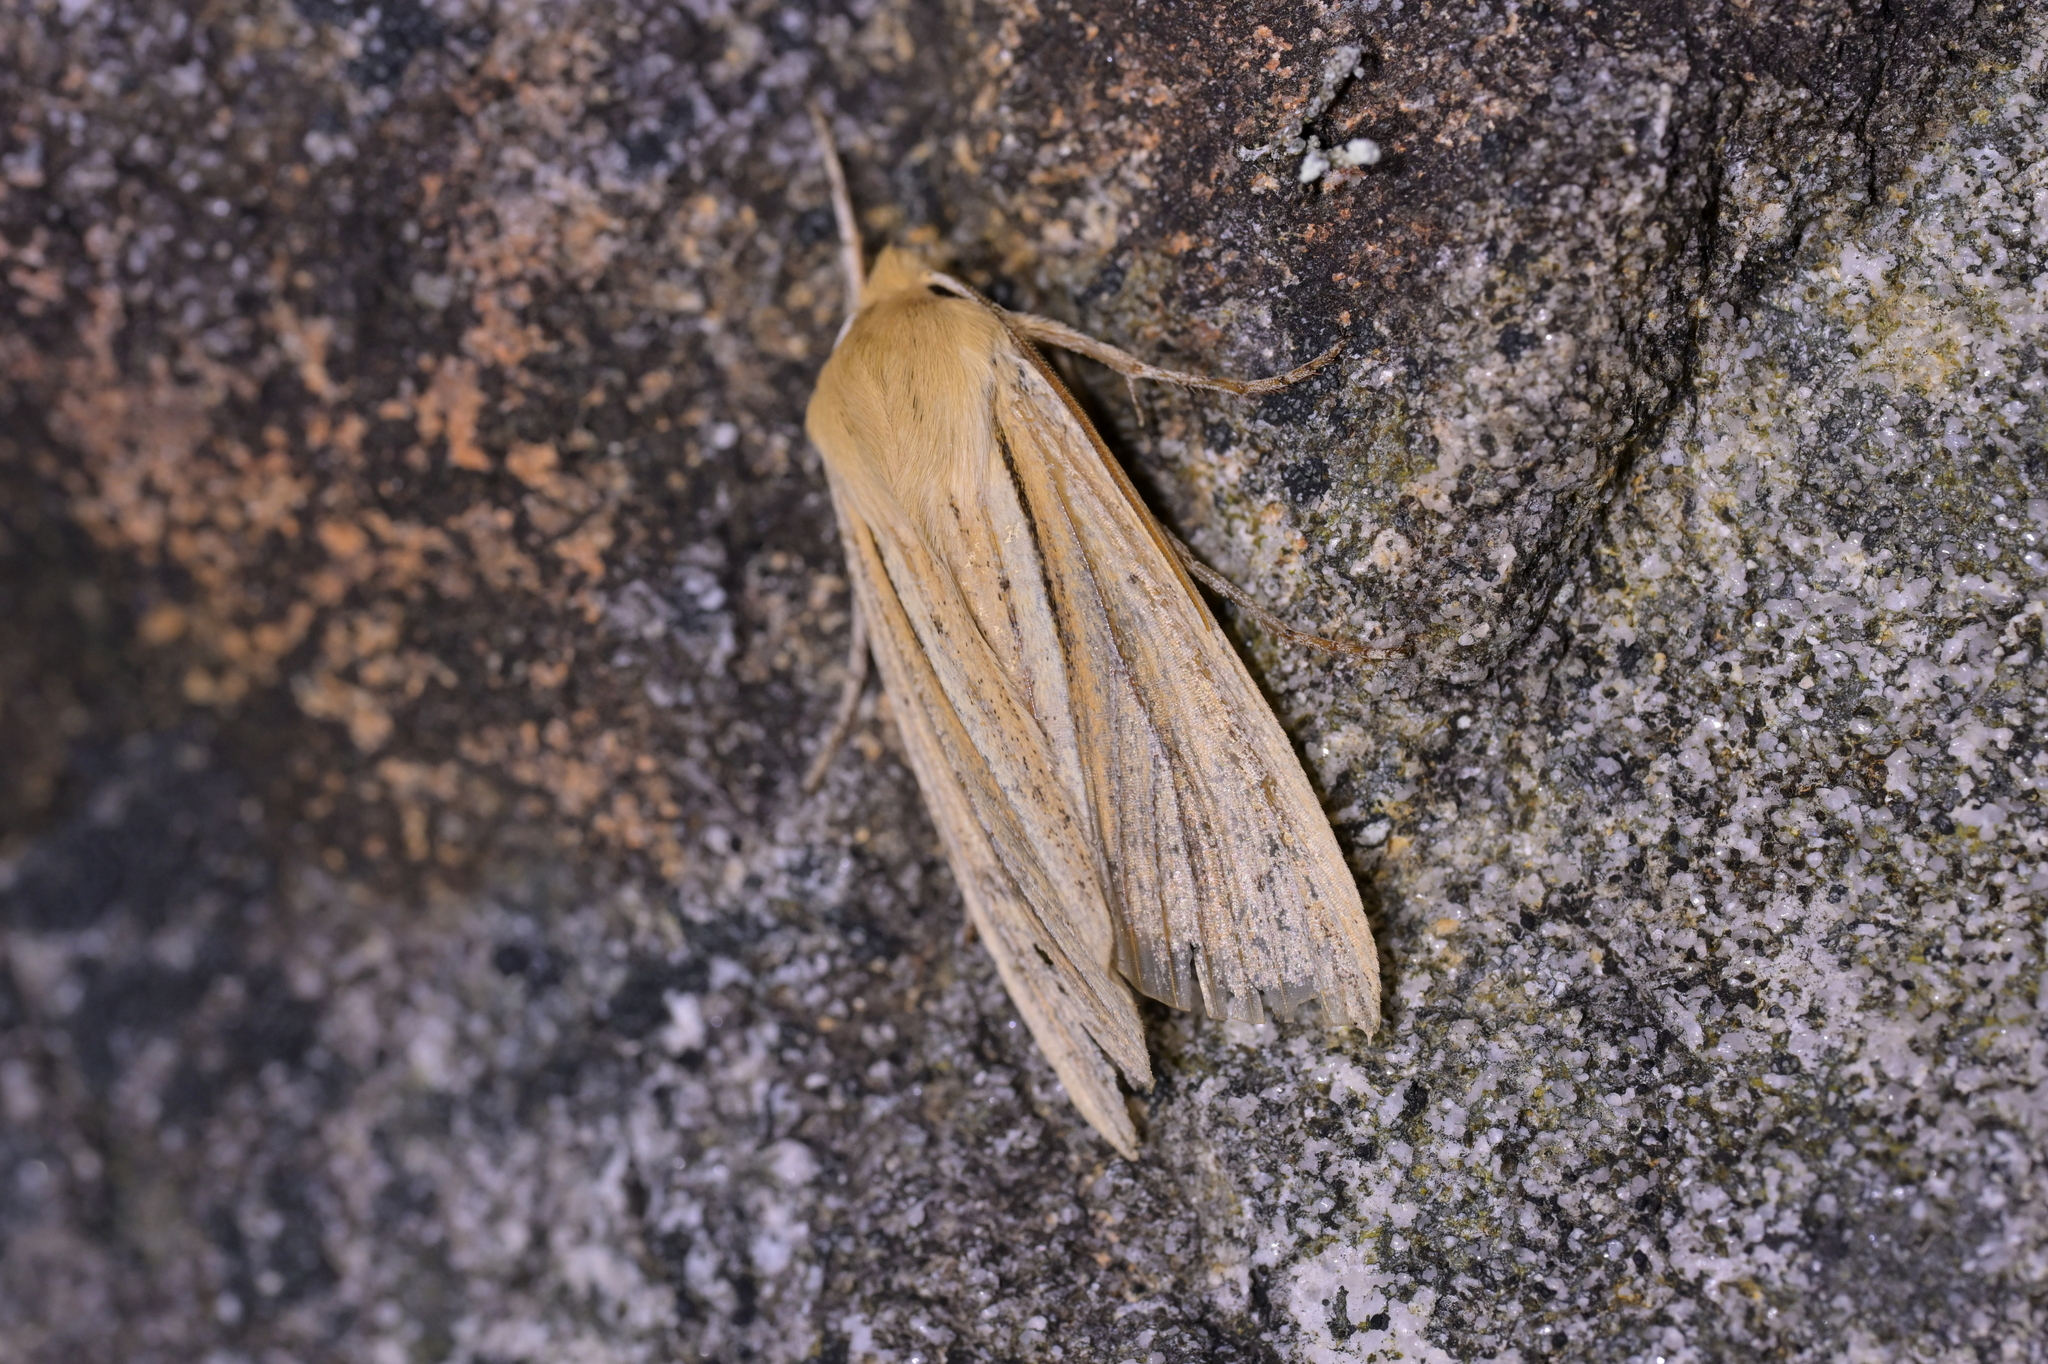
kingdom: Animalia
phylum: Arthropoda
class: Insecta
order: Lepidoptera
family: Noctuidae
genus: Ichneutica
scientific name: Ichneutica sulcana
